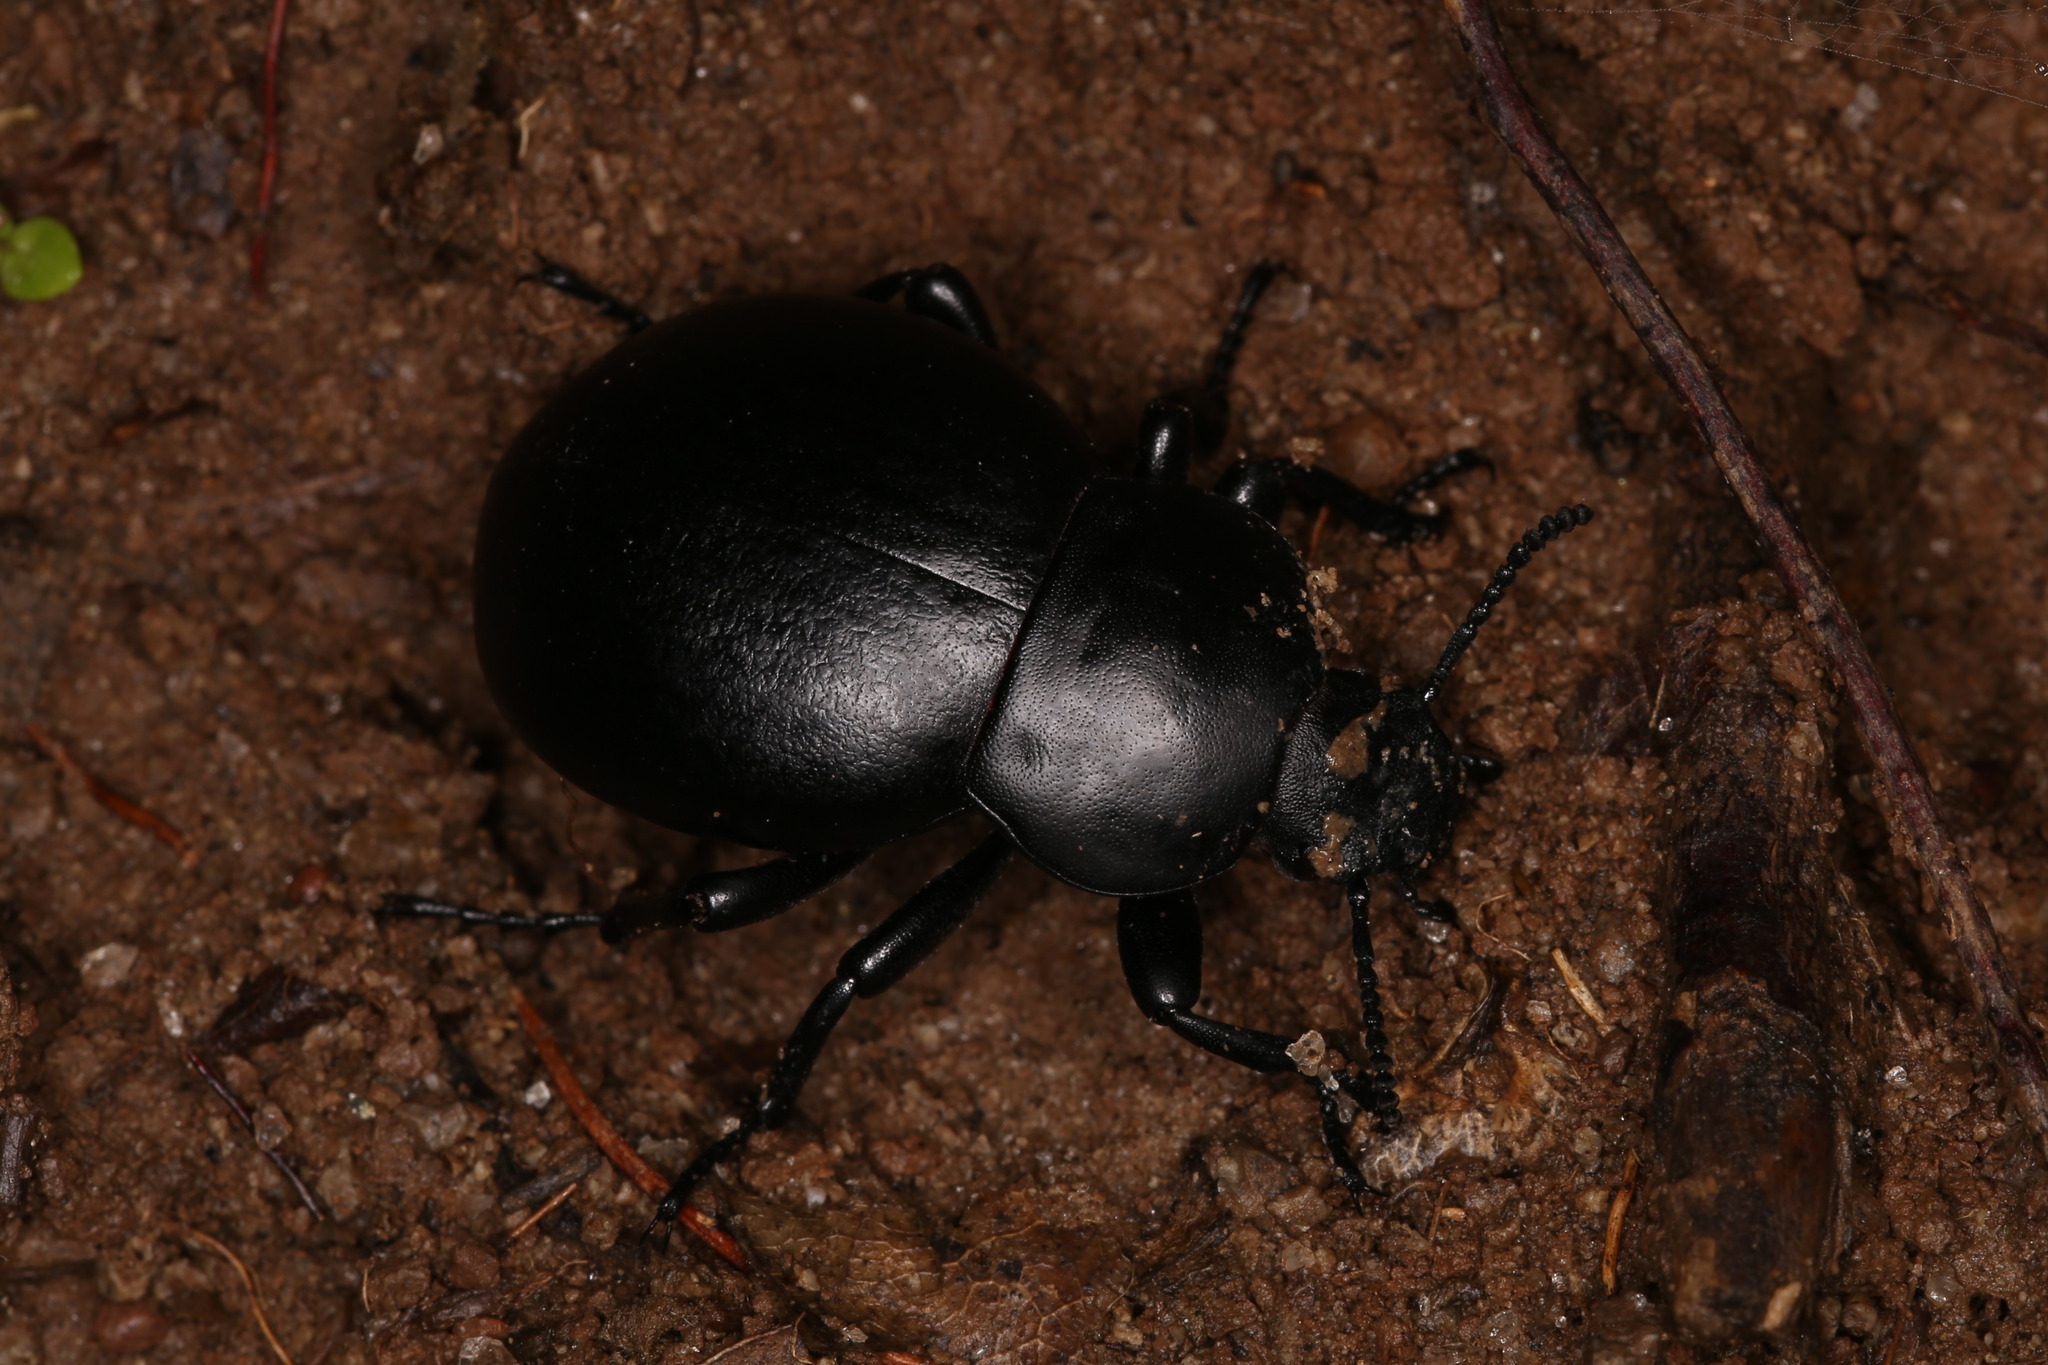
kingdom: Animalia
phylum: Arthropoda
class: Insecta
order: Coleoptera
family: Tenebrionidae
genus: Gnaptor
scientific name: Gnaptor spinimanus
